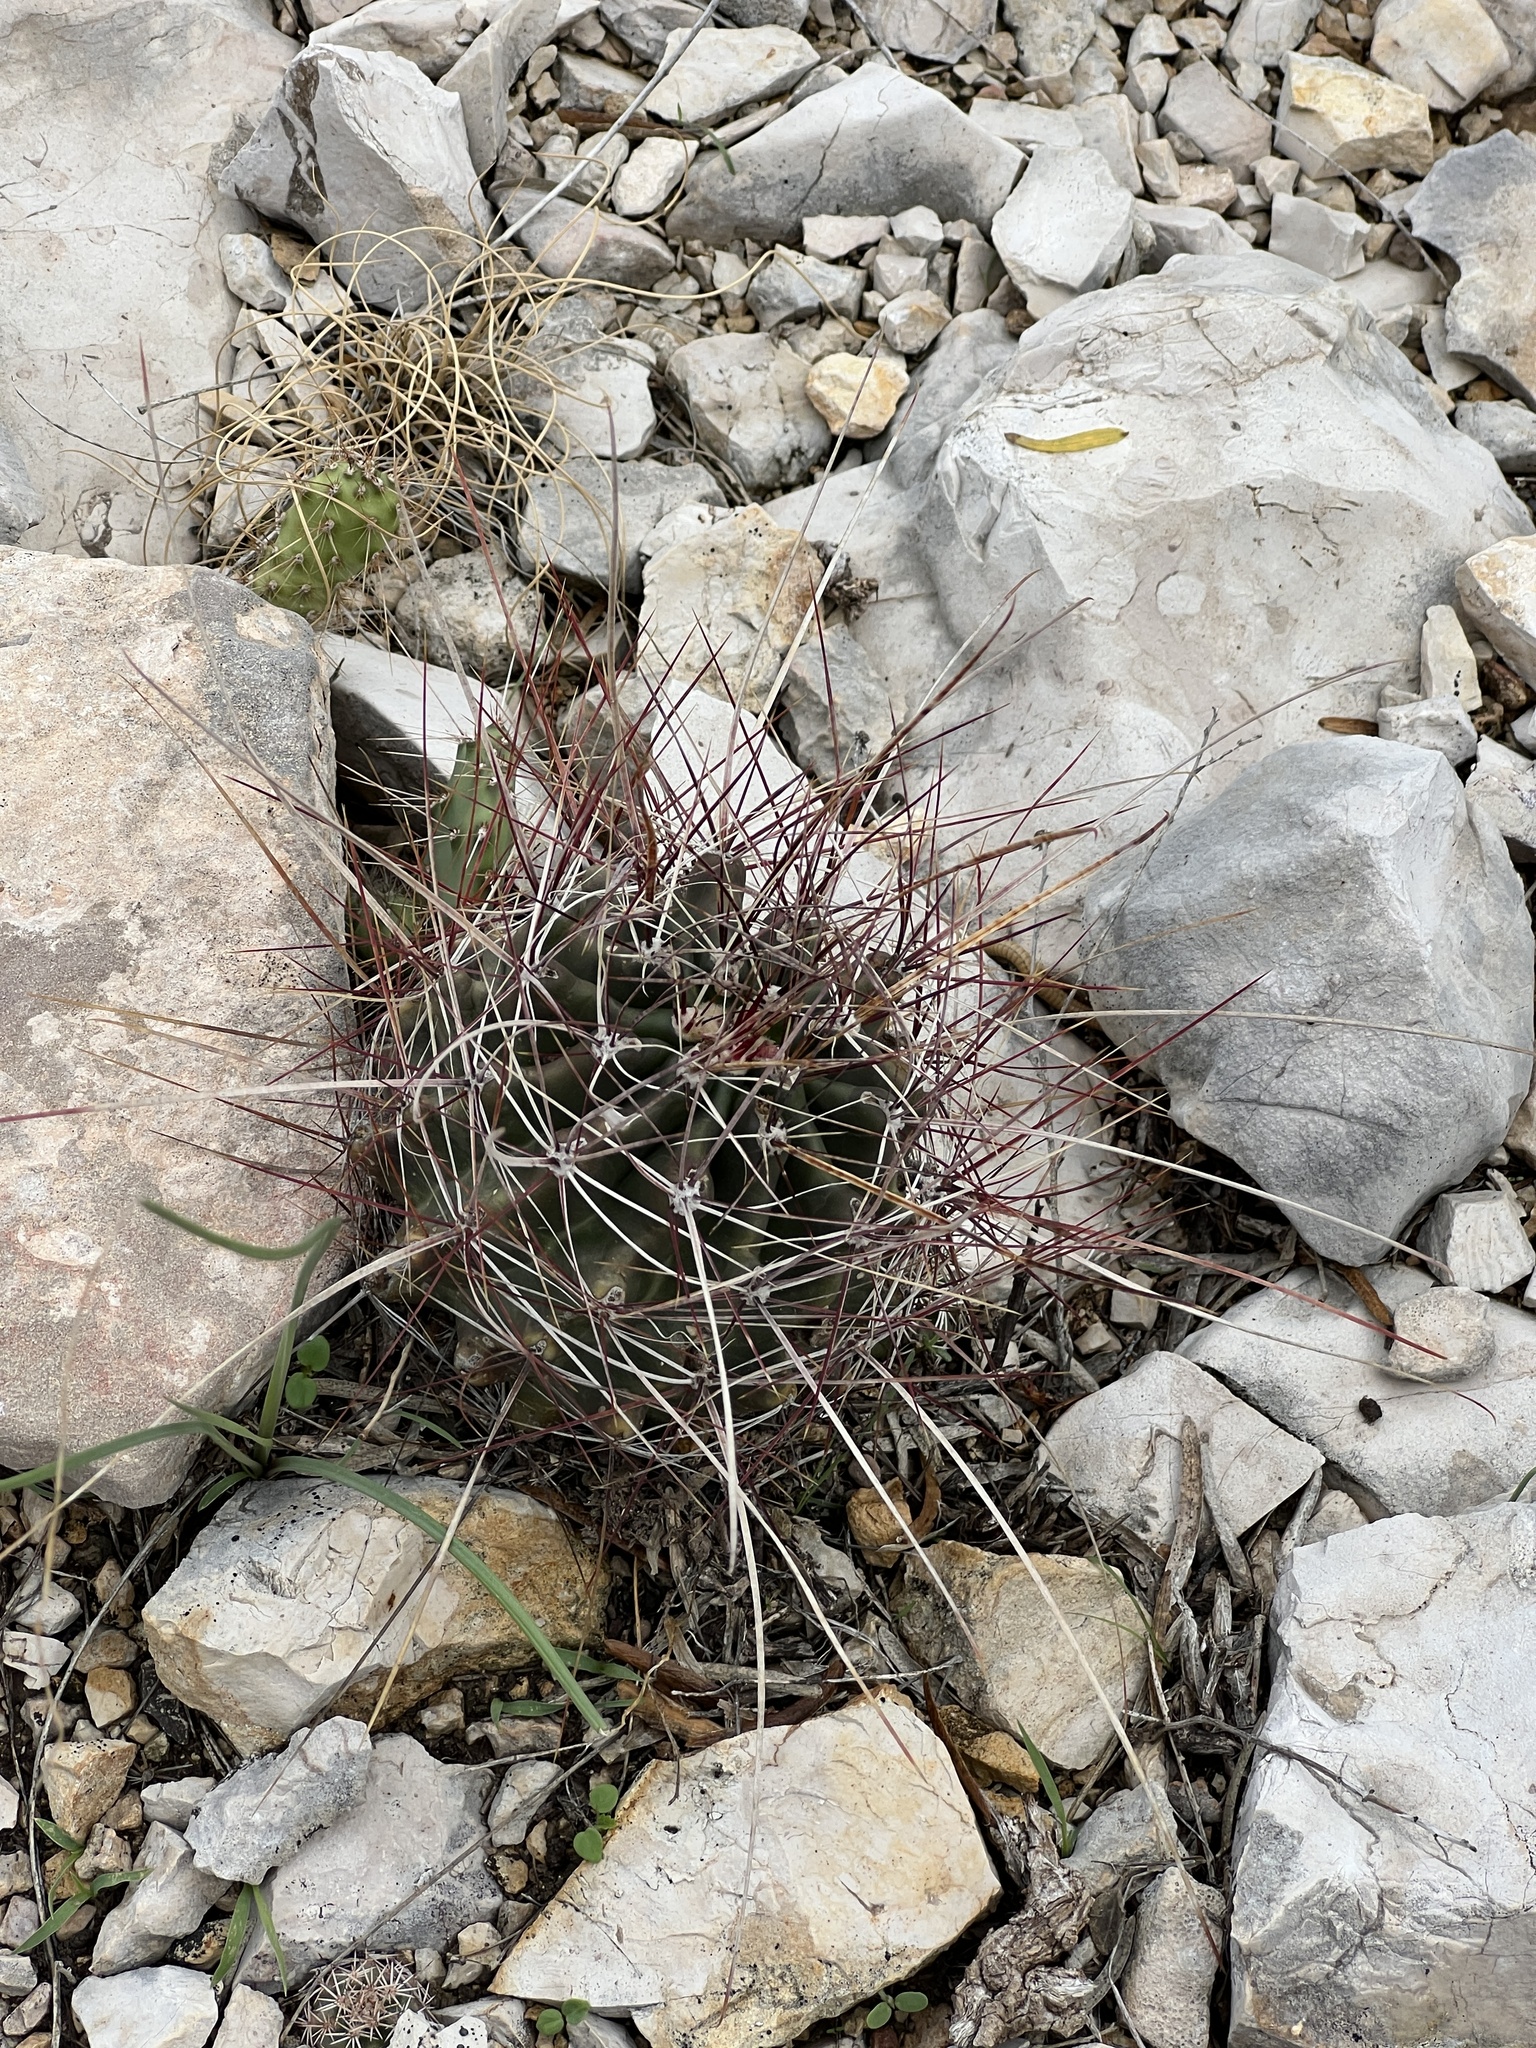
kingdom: Plantae
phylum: Tracheophyta
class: Magnoliopsida
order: Caryophyllales
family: Cactaceae
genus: Bisnaga
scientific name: Bisnaga hamatacantha
